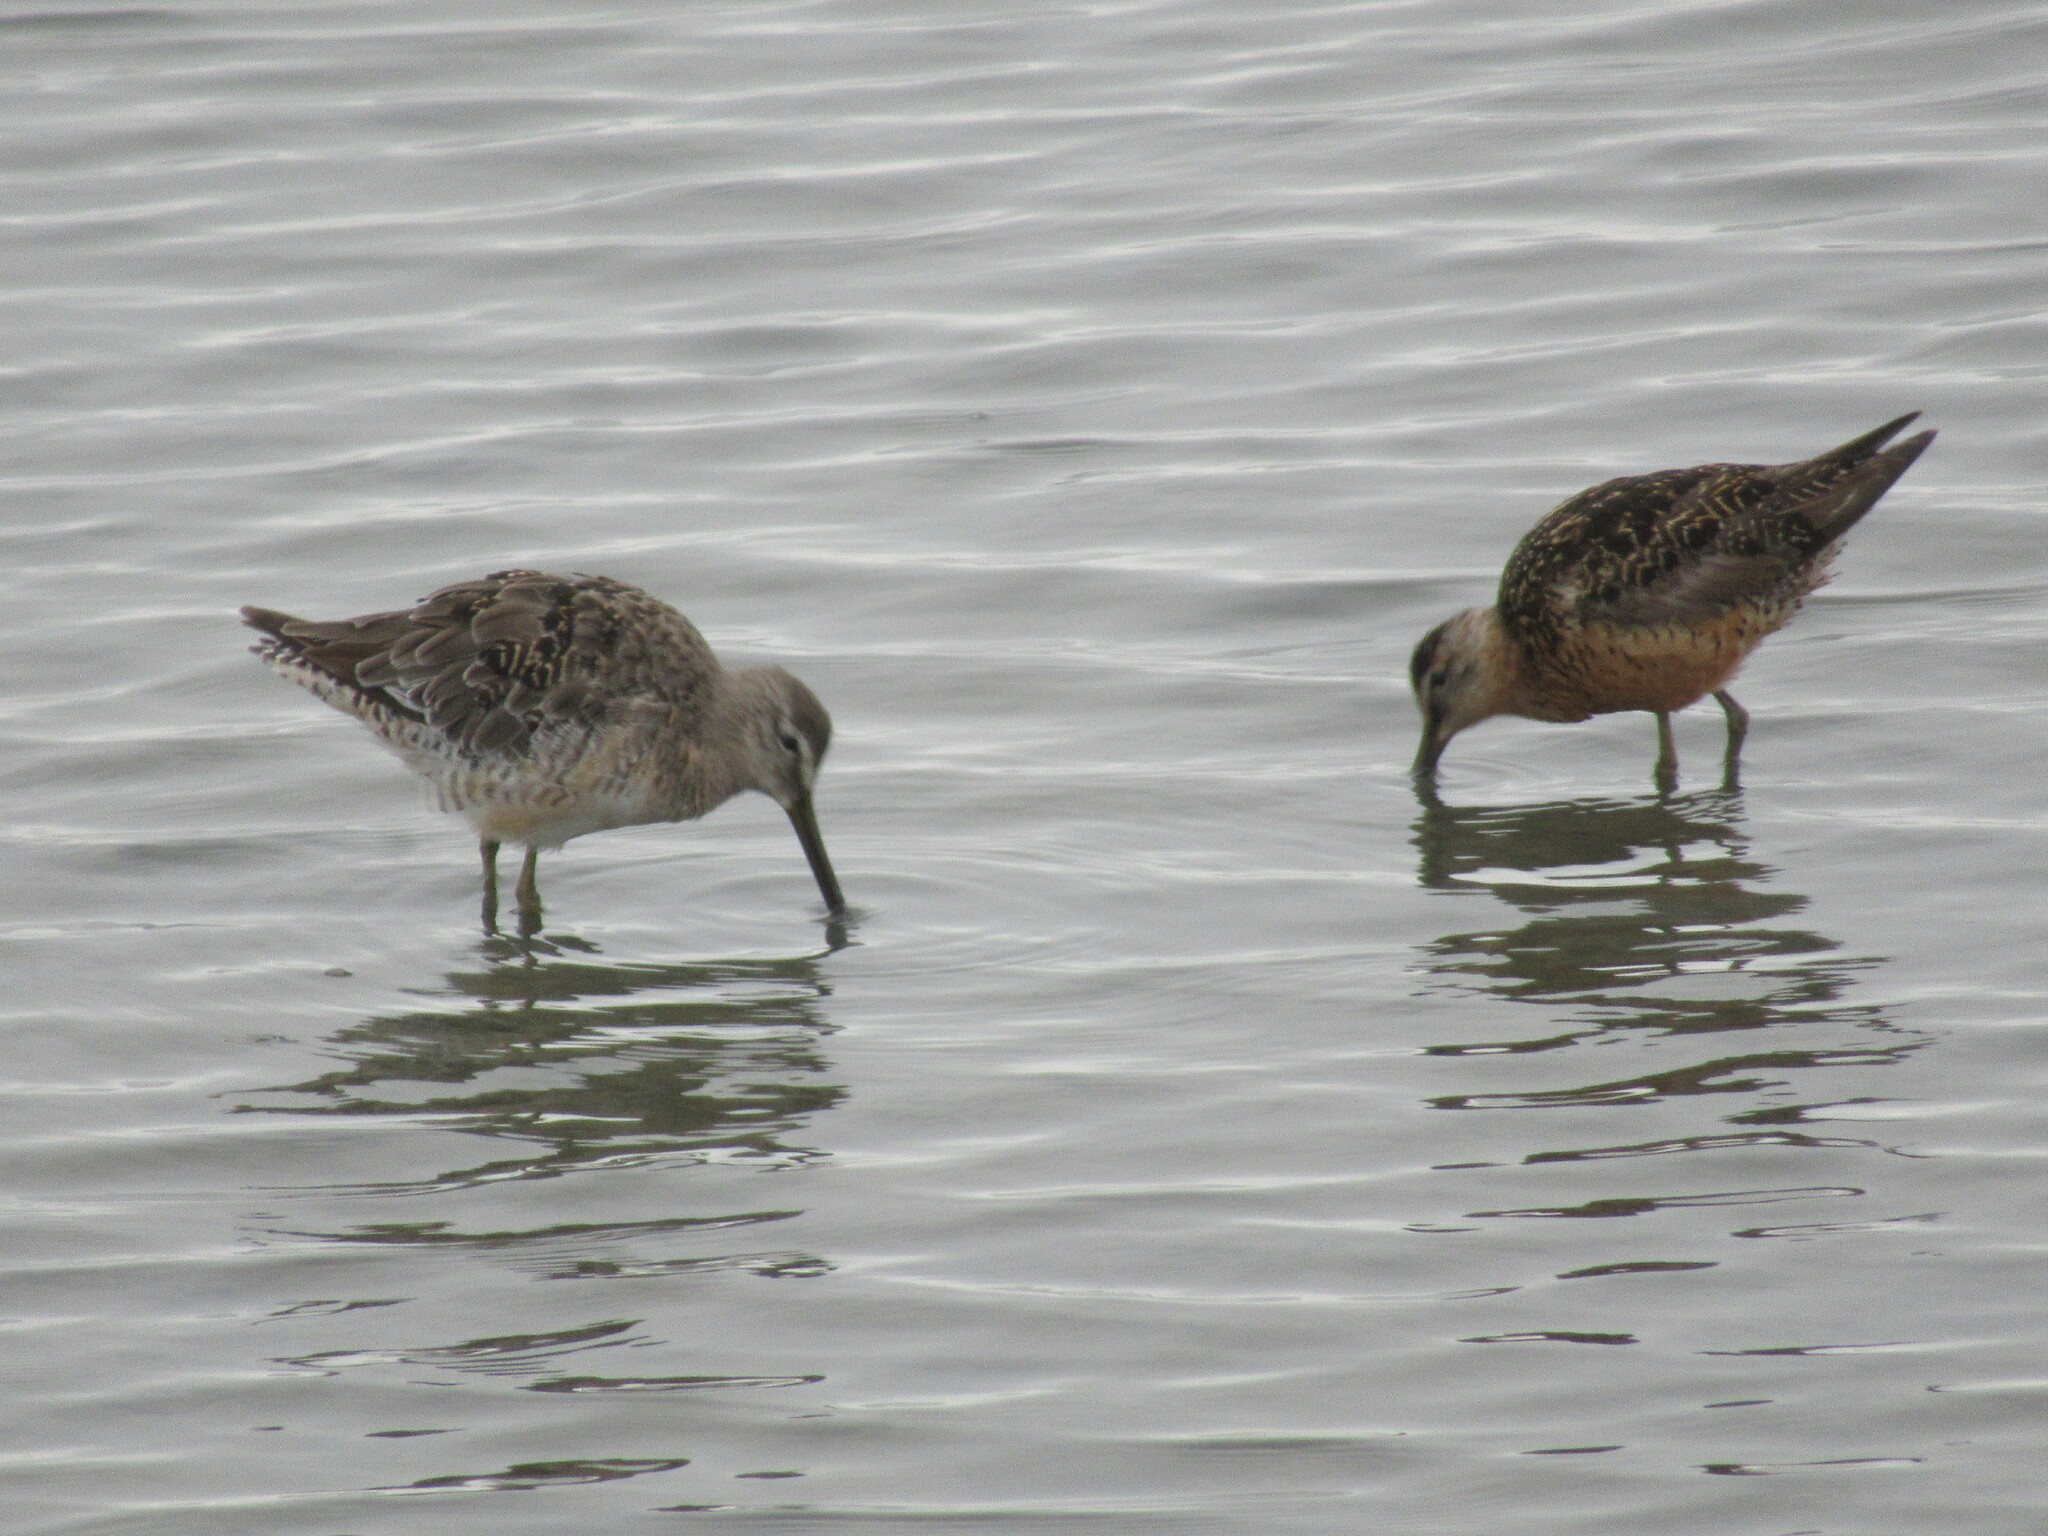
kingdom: Animalia
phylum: Chordata
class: Aves
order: Charadriiformes
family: Scolopacidae
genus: Limnodromus
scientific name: Limnodromus
